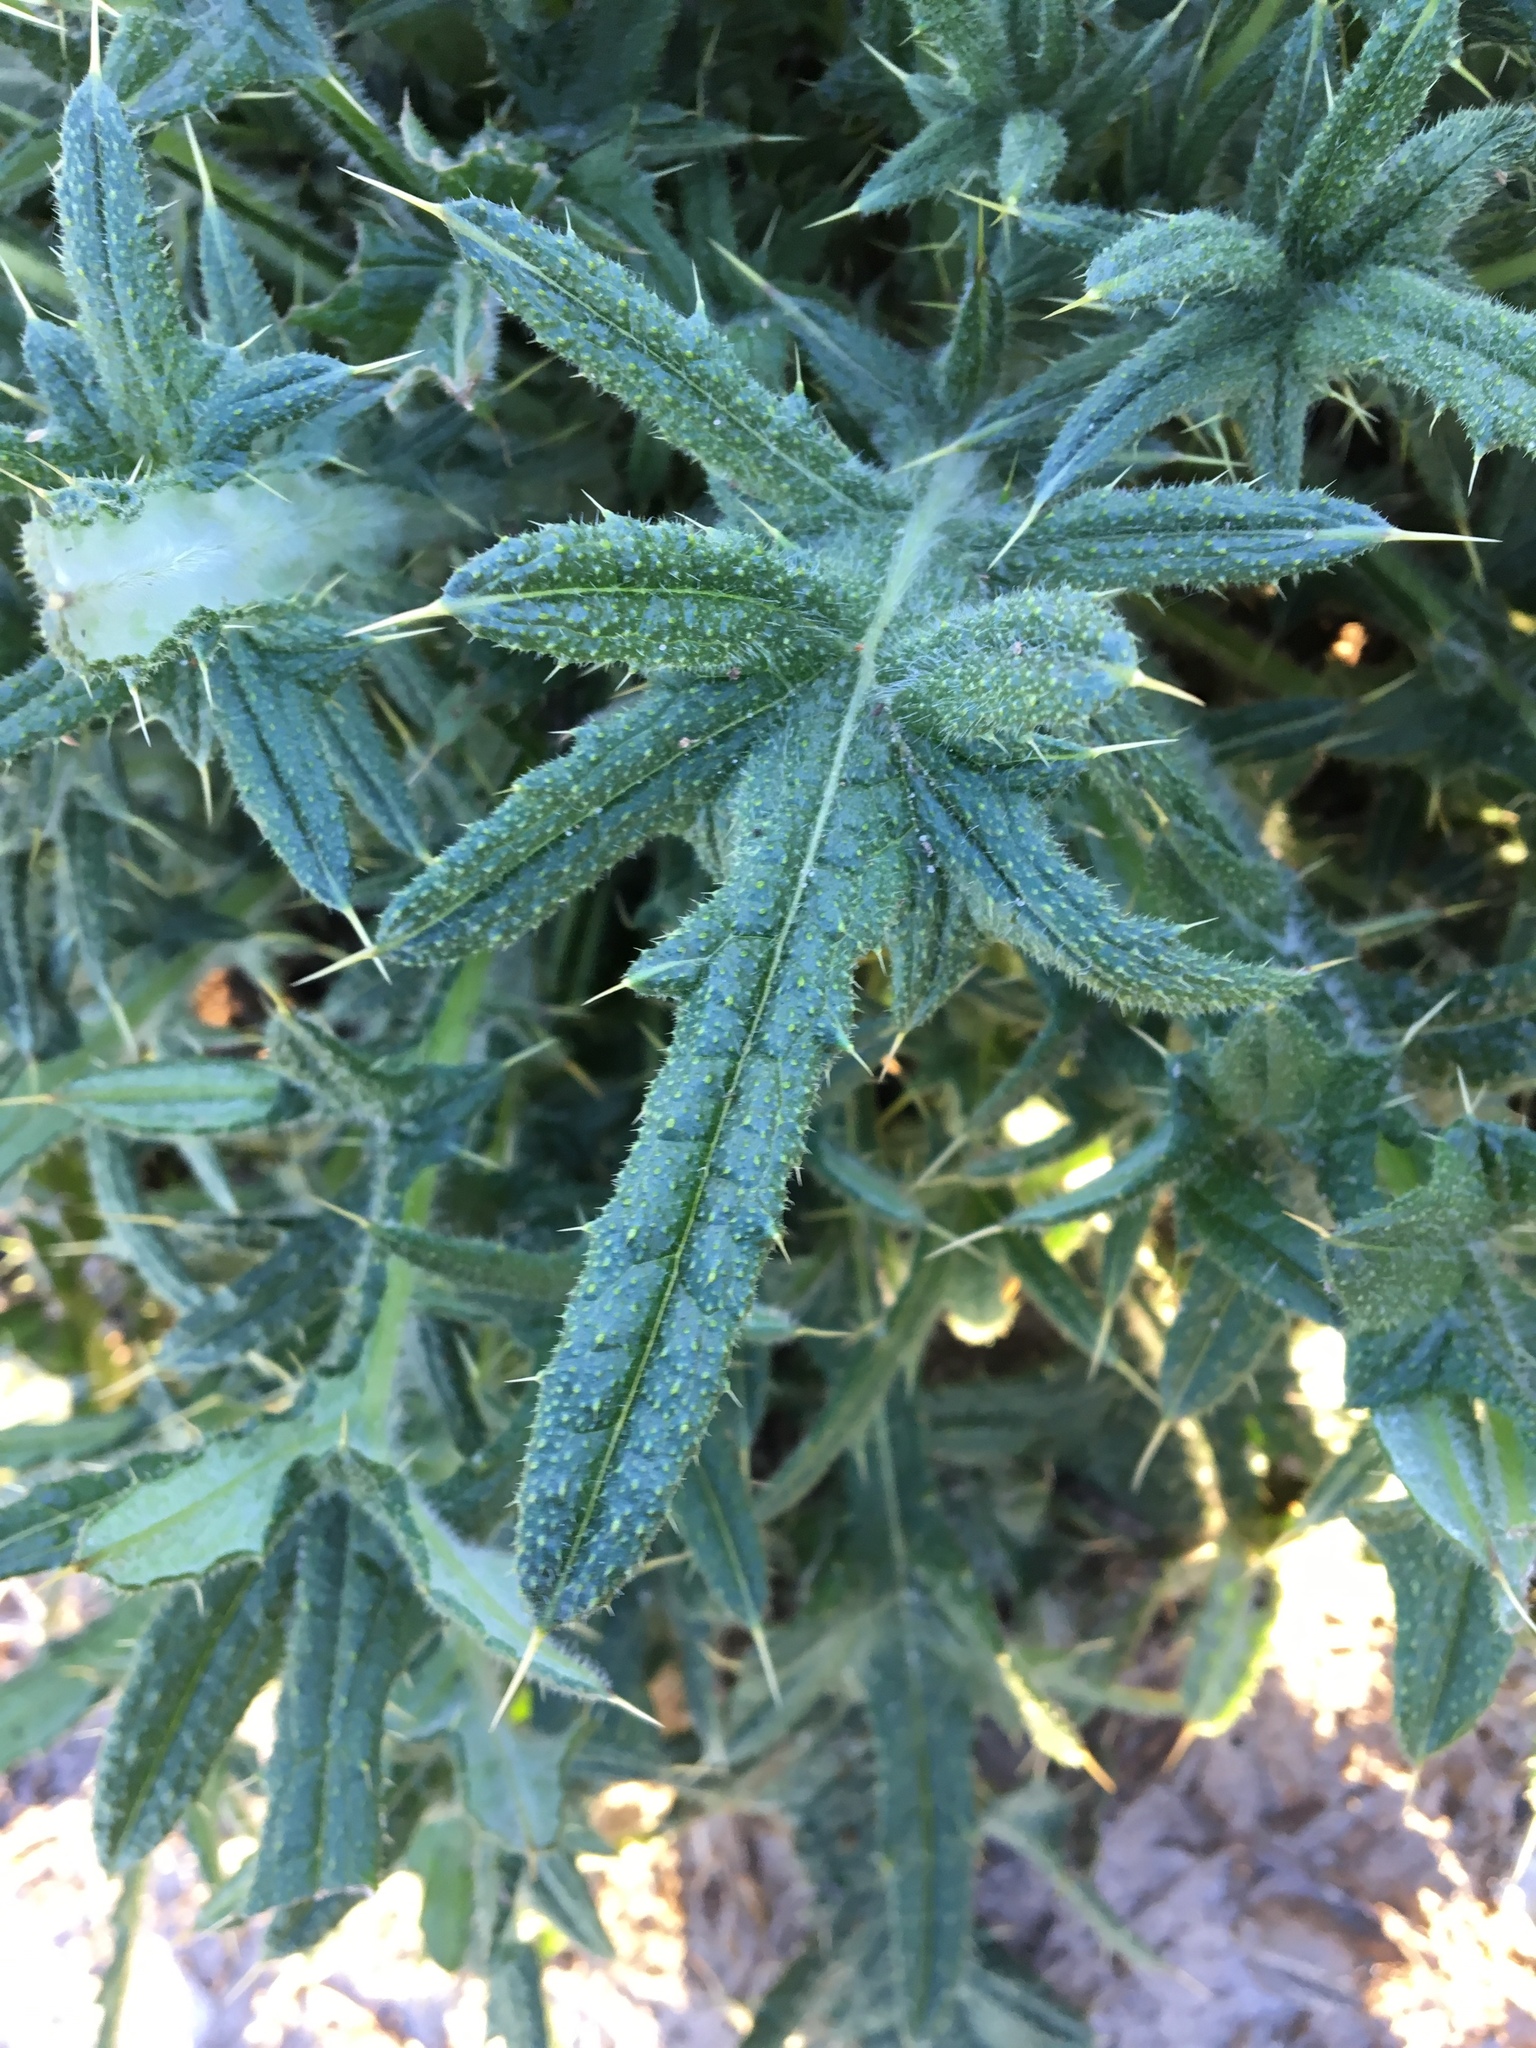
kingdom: Plantae
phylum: Tracheophyta
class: Magnoliopsida
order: Asterales
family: Asteraceae
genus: Cirsium
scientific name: Cirsium vulgare
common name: Bull thistle
